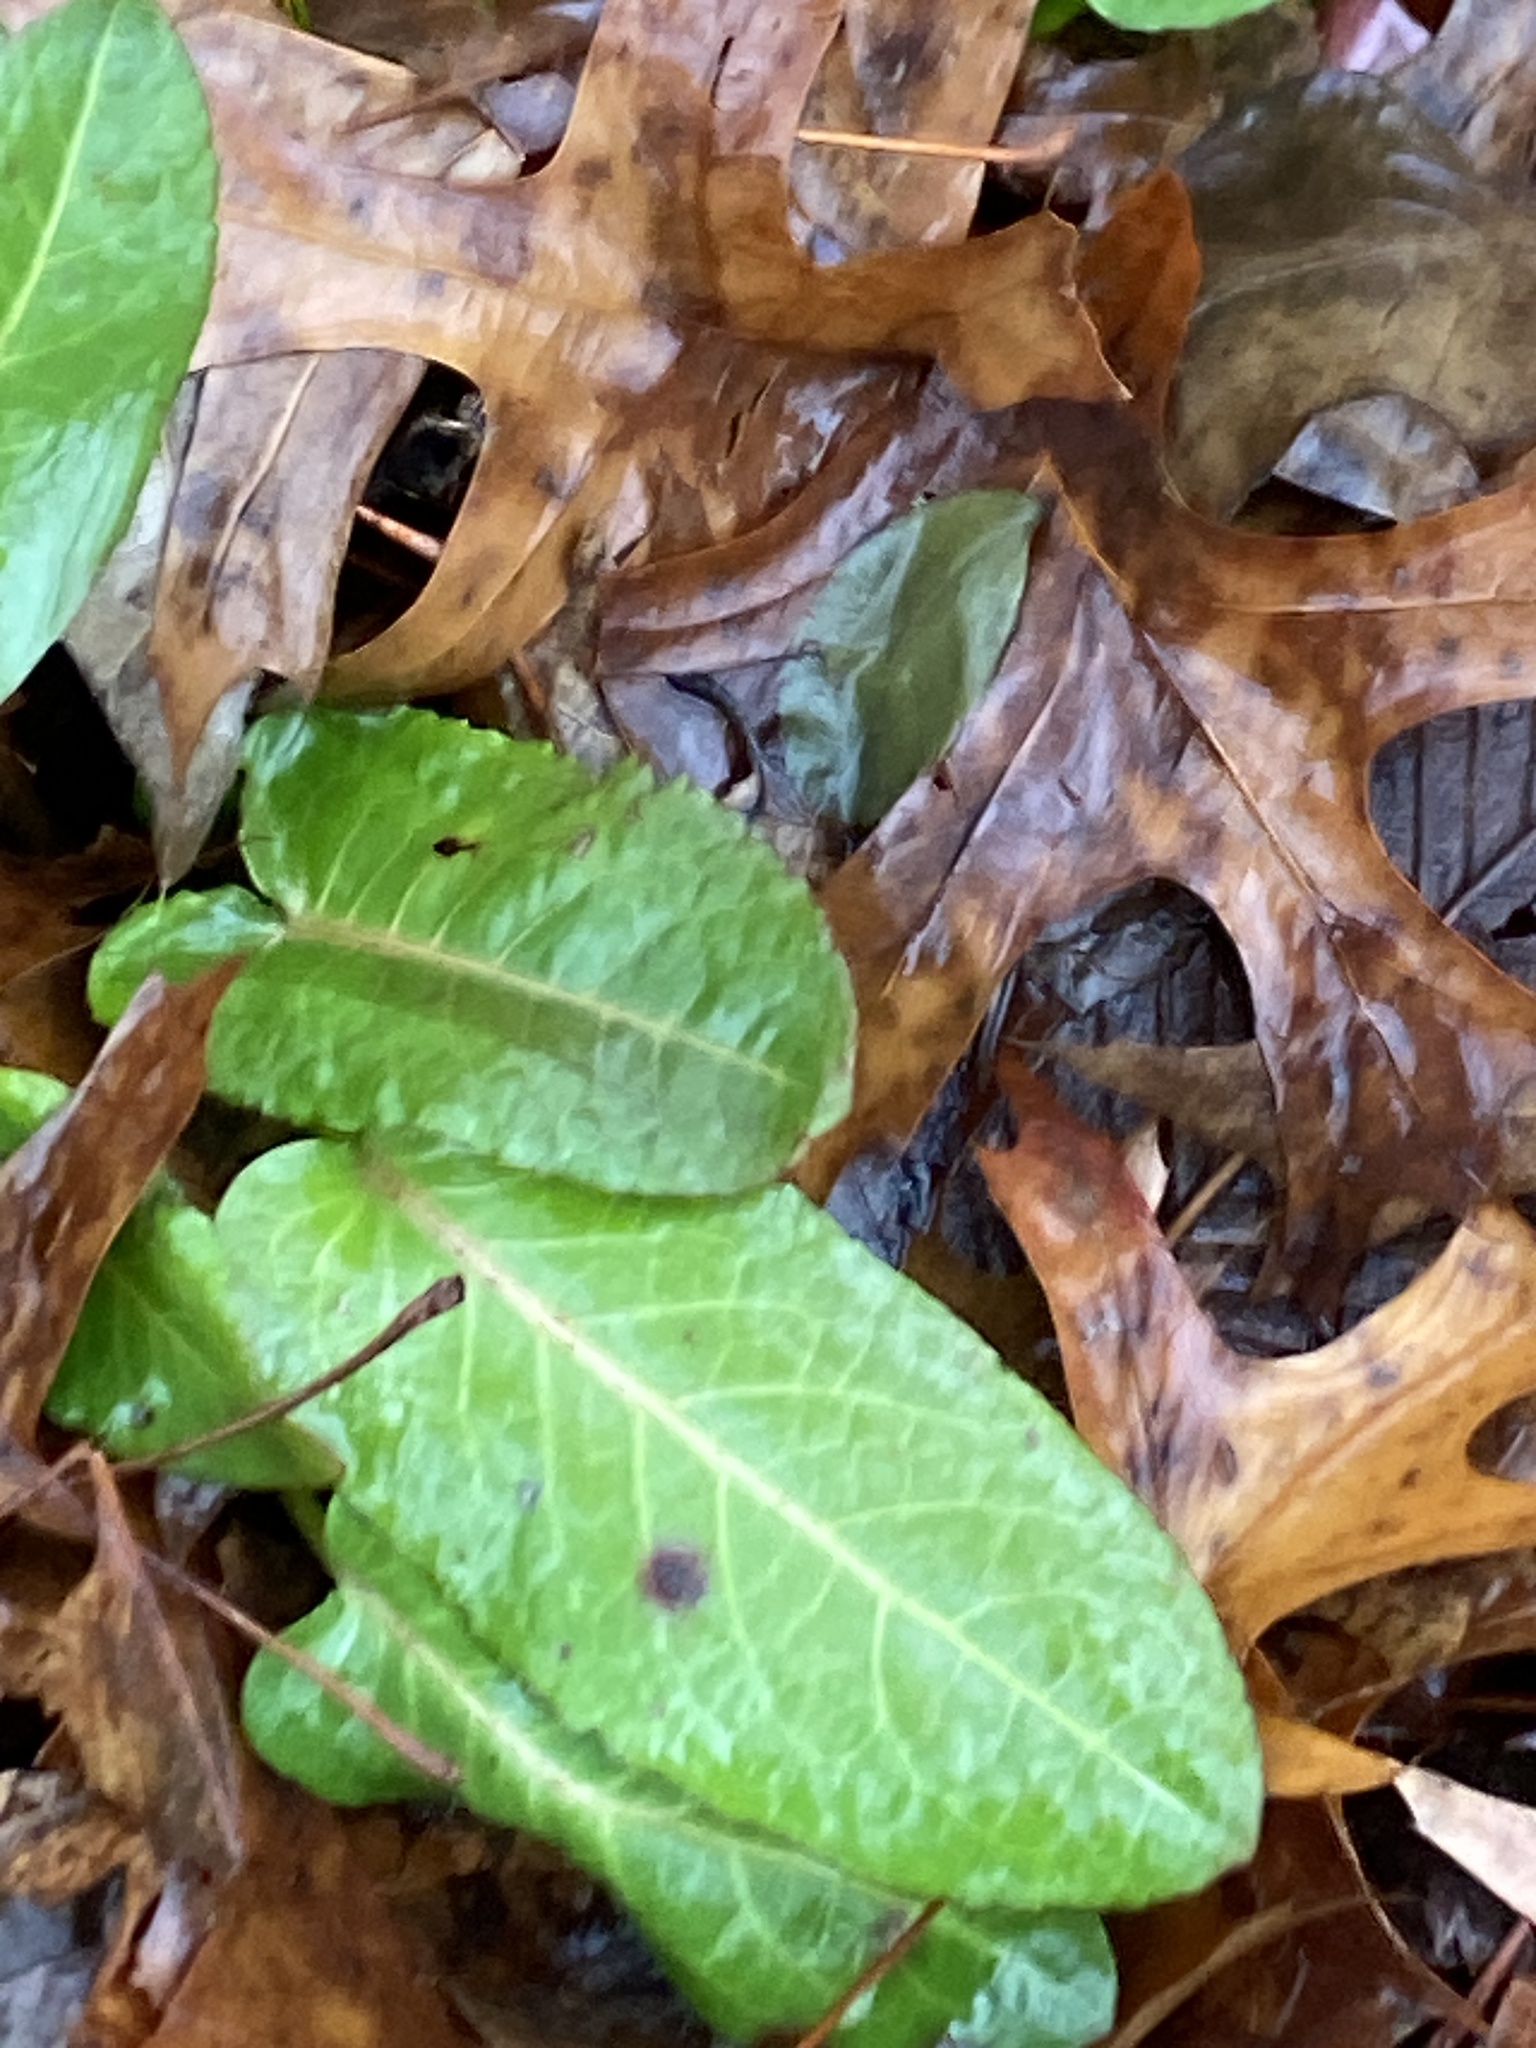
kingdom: Plantae
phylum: Tracheophyta
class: Magnoliopsida
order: Caryophyllales
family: Polygonaceae
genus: Rumex
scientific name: Rumex obtusifolius
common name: Bitter dock
